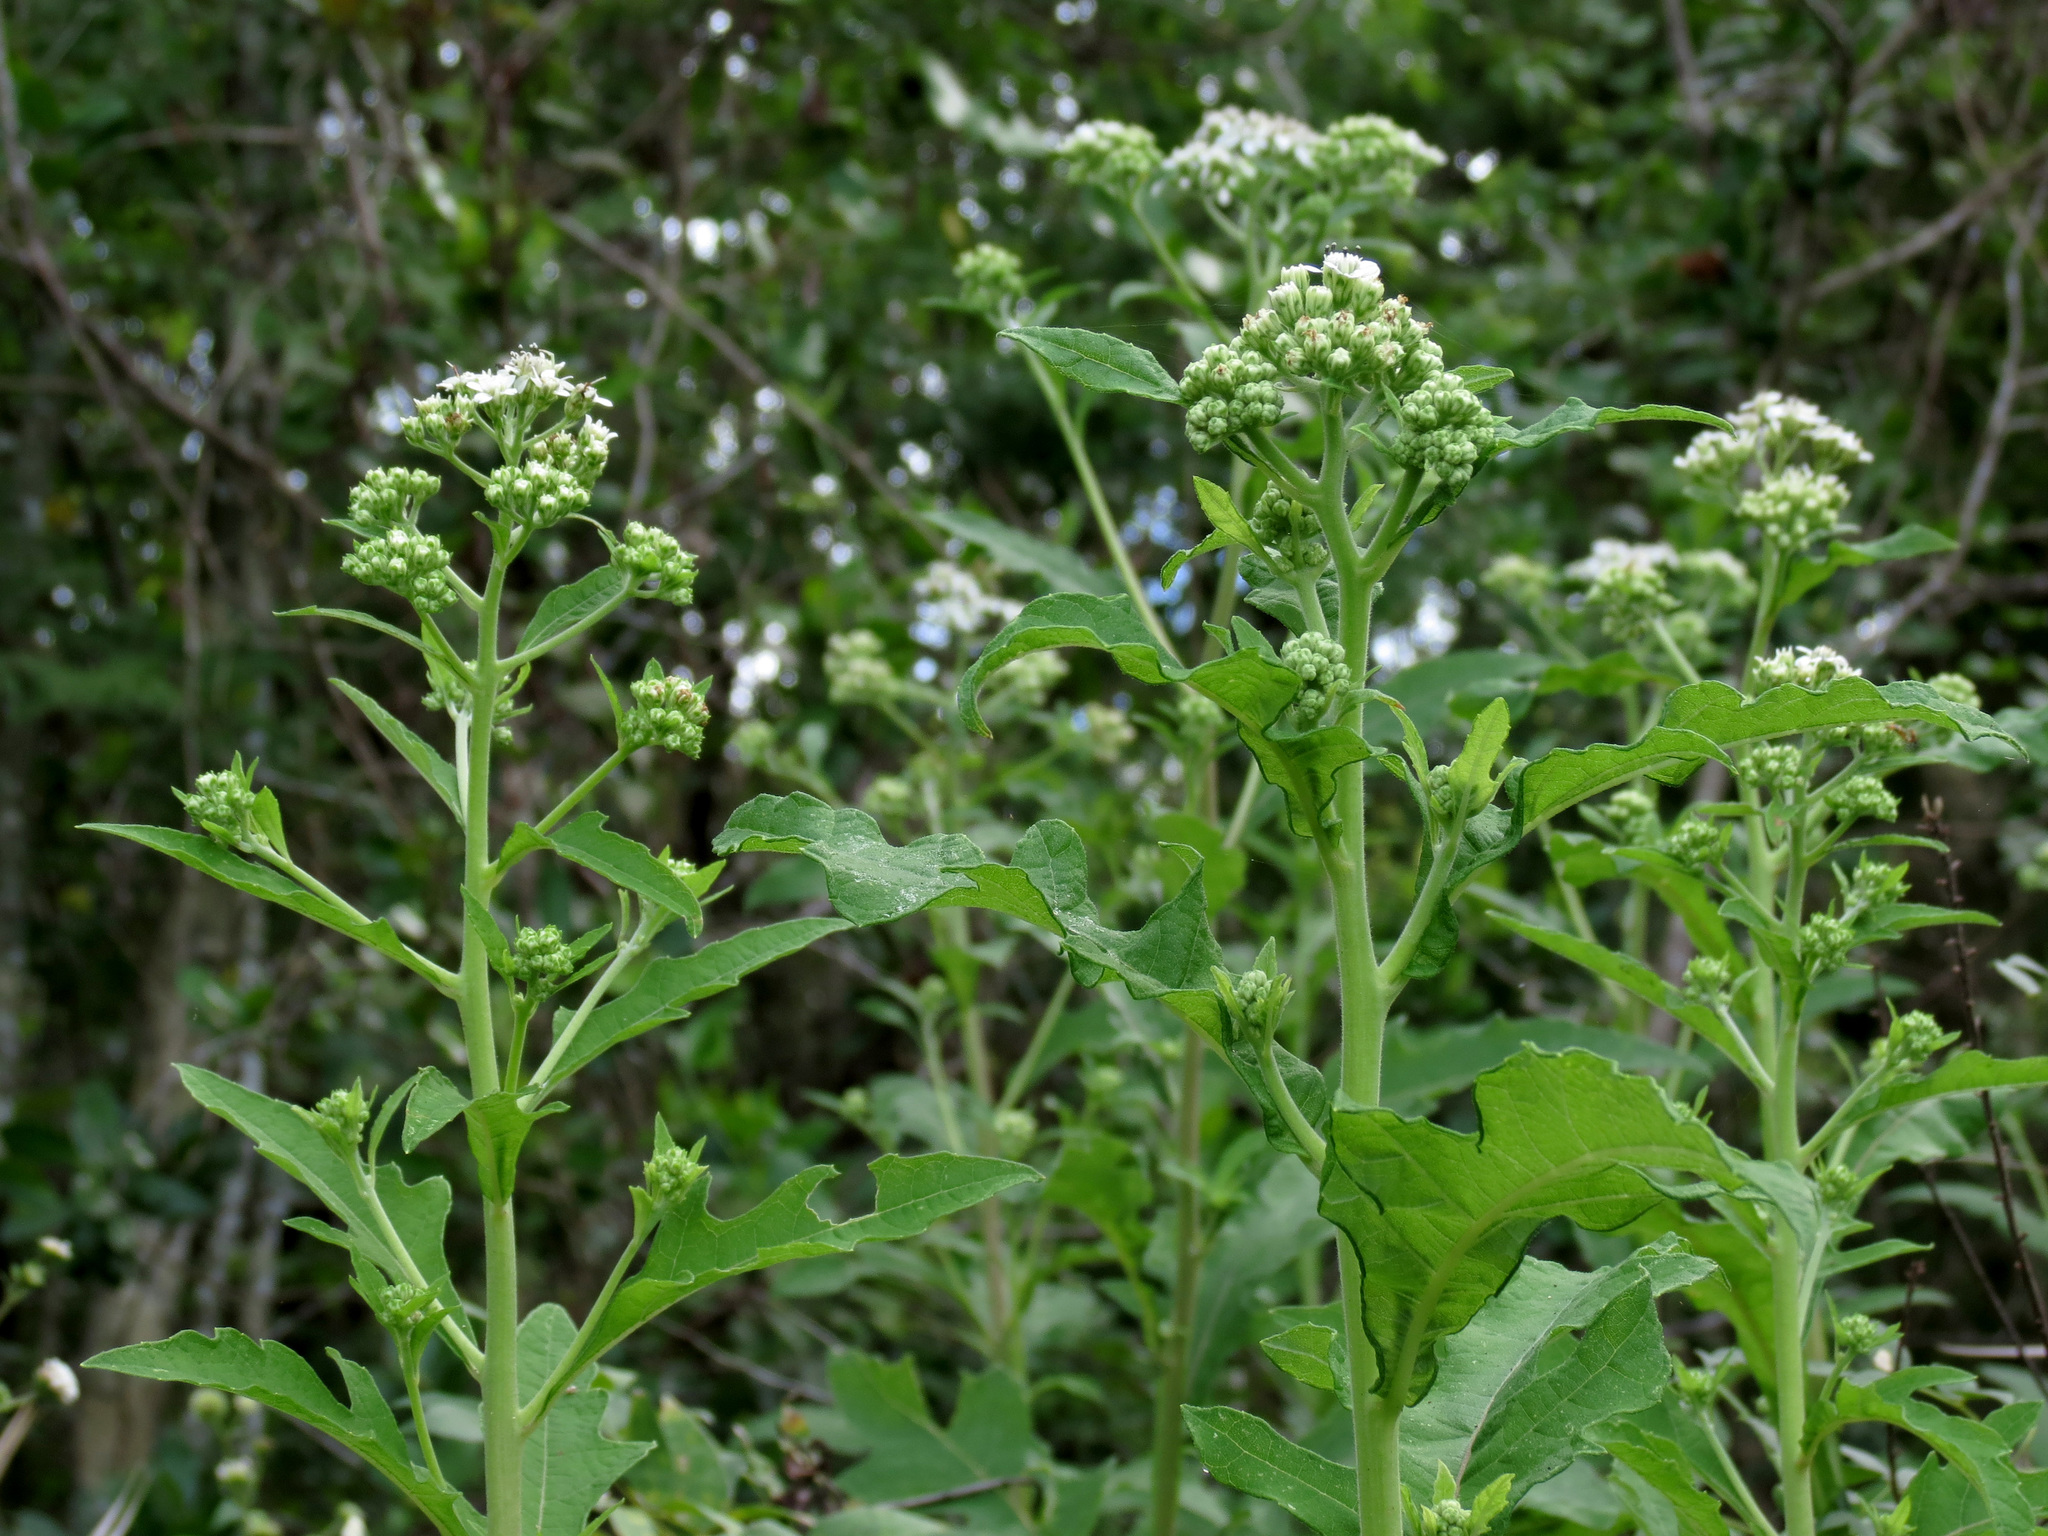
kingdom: Plantae
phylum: Tracheophyta
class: Magnoliopsida
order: Asterales
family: Asteraceae
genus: Verbesina
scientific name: Verbesina virginica
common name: Frostweed
